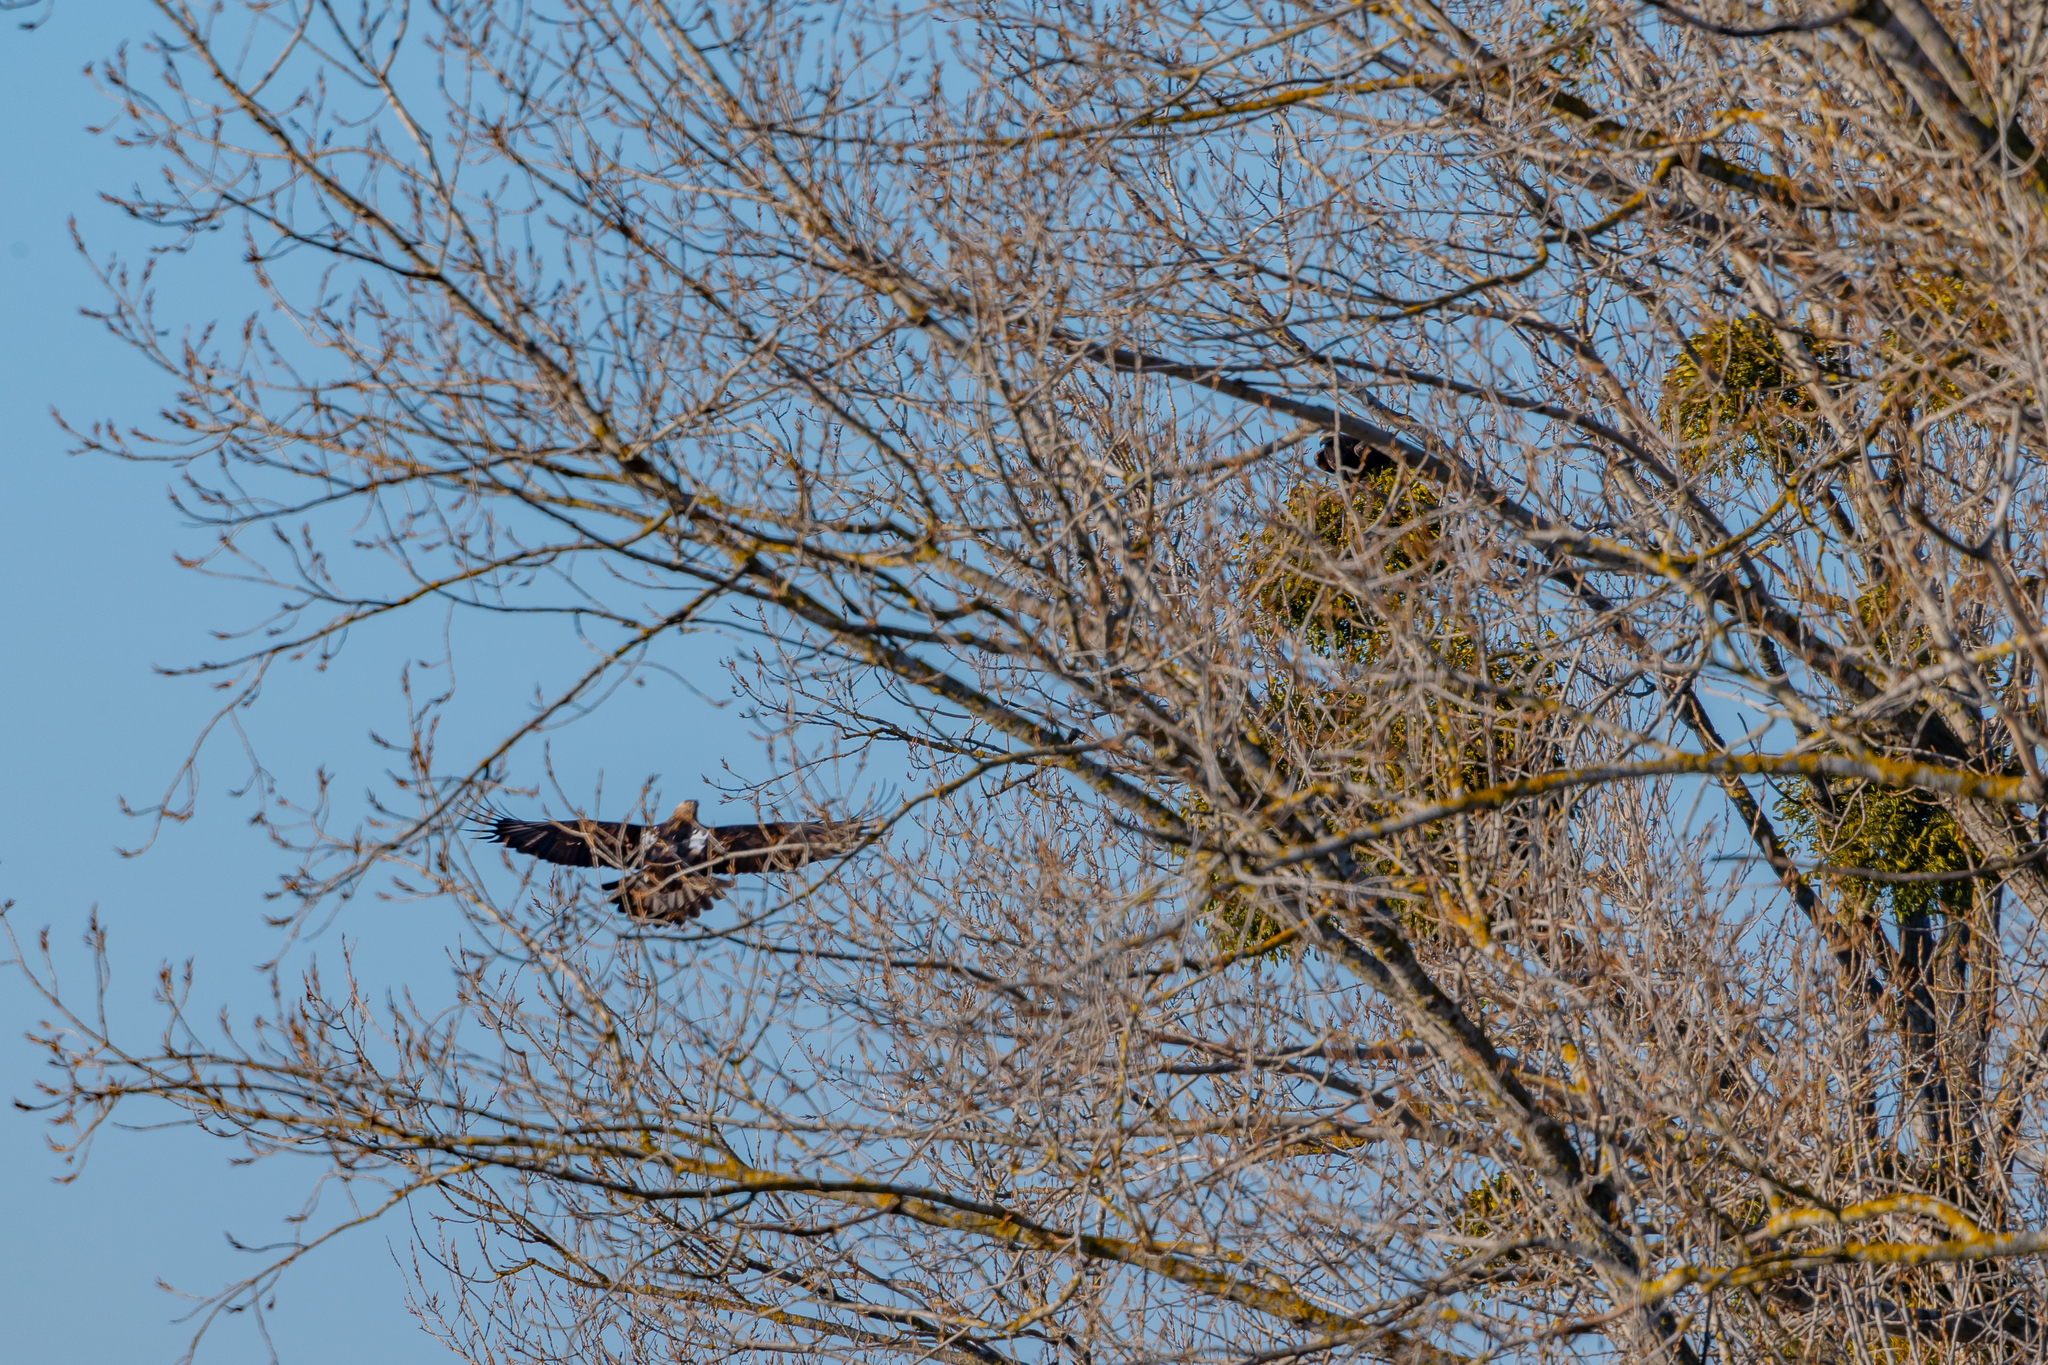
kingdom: Animalia
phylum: Chordata
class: Aves
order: Accipitriformes
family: Accipitridae
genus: Aquila
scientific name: Aquila heliaca
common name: Eastern imperial eagle
